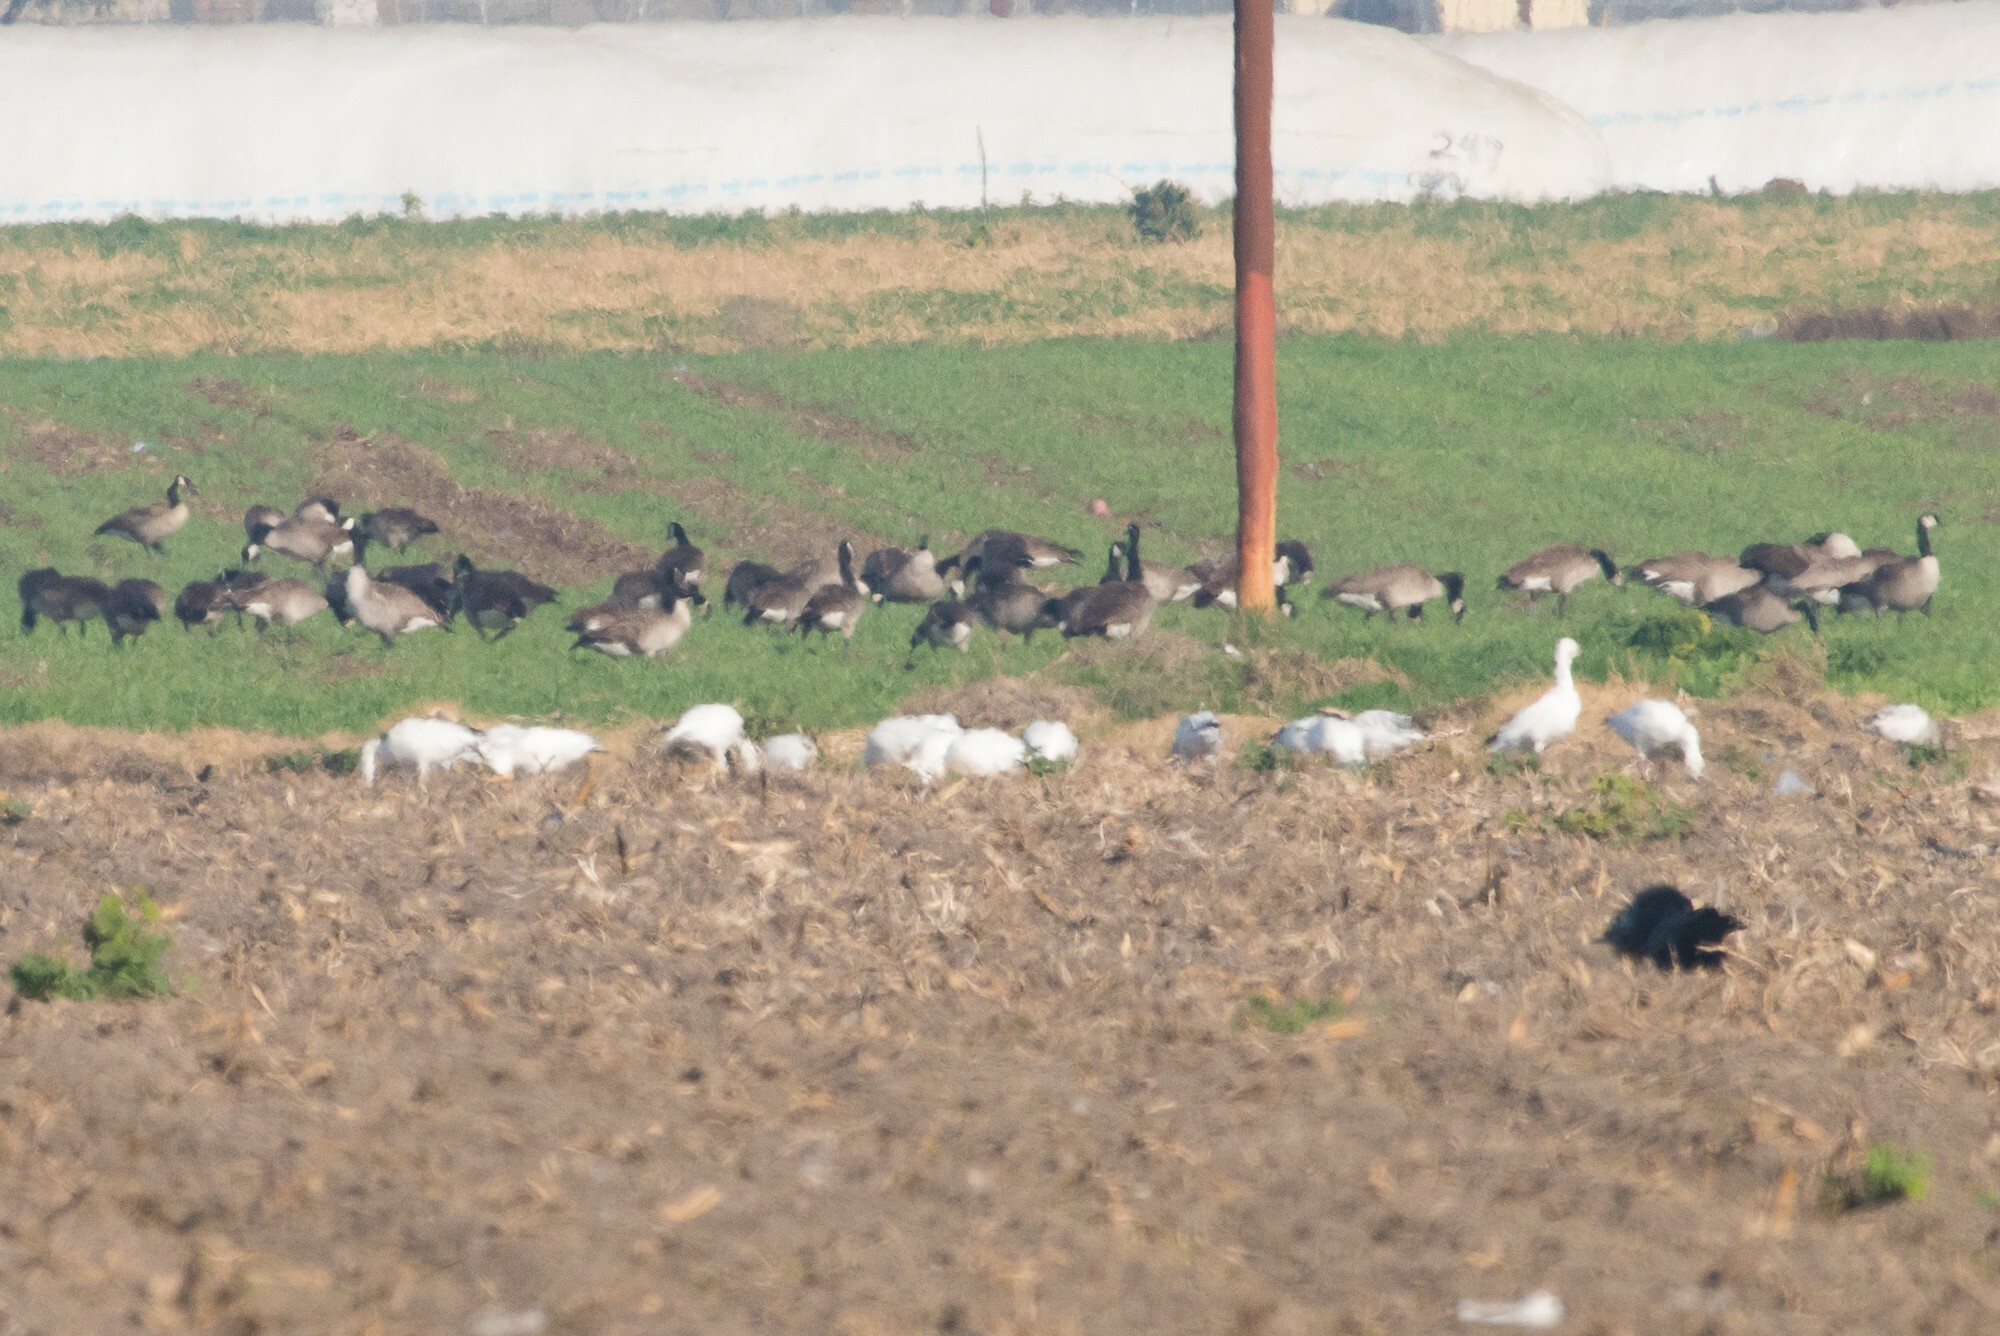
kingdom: Animalia
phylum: Chordata
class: Aves
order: Anseriformes
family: Anatidae
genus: Anser
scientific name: Anser caerulescens
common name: Snow goose
